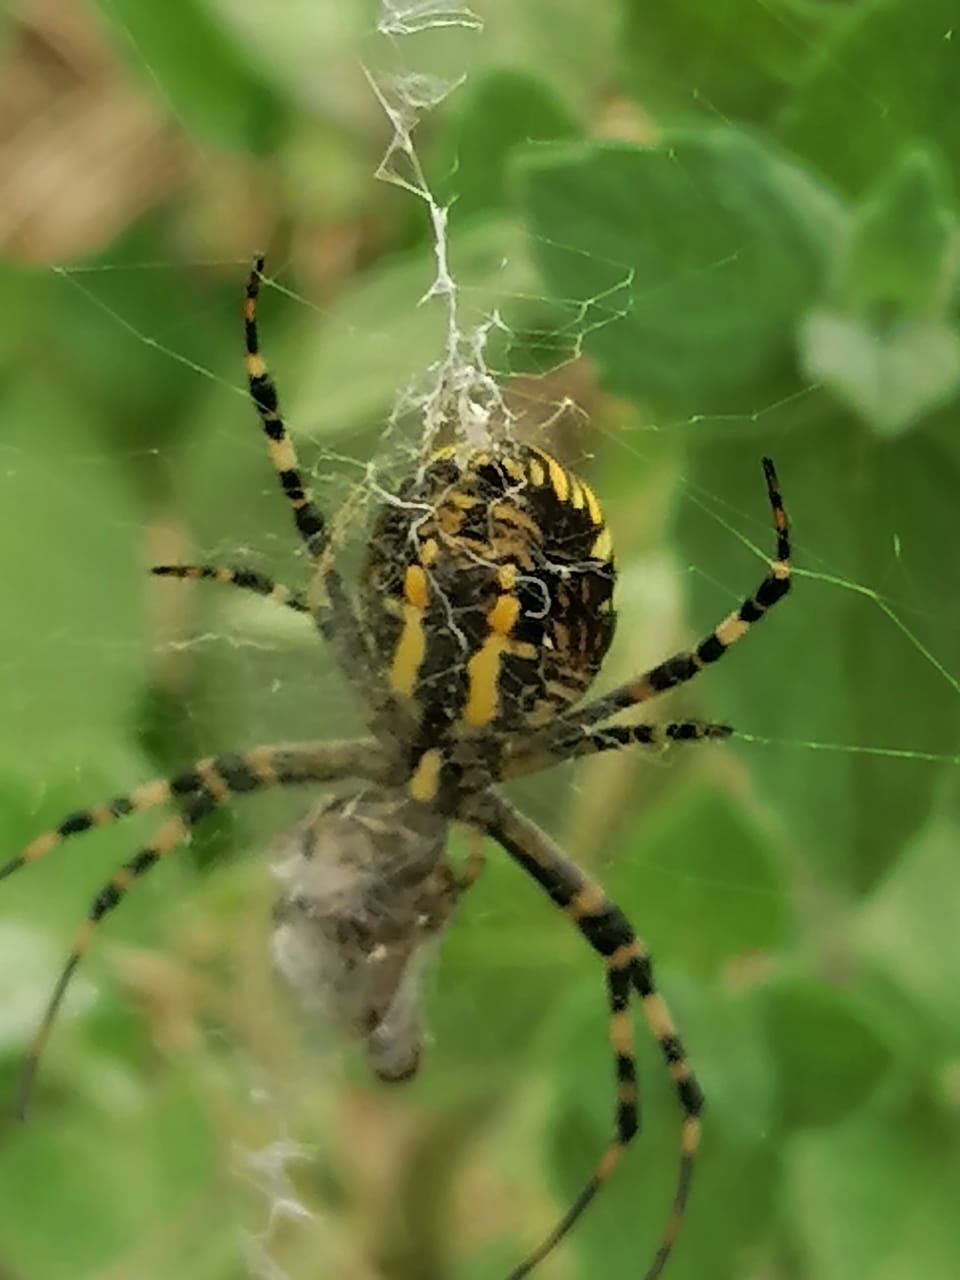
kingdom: Animalia
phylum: Arthropoda
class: Arachnida
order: Araneae
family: Araneidae
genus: Argiope
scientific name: Argiope bruennichi
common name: Wasp spider
